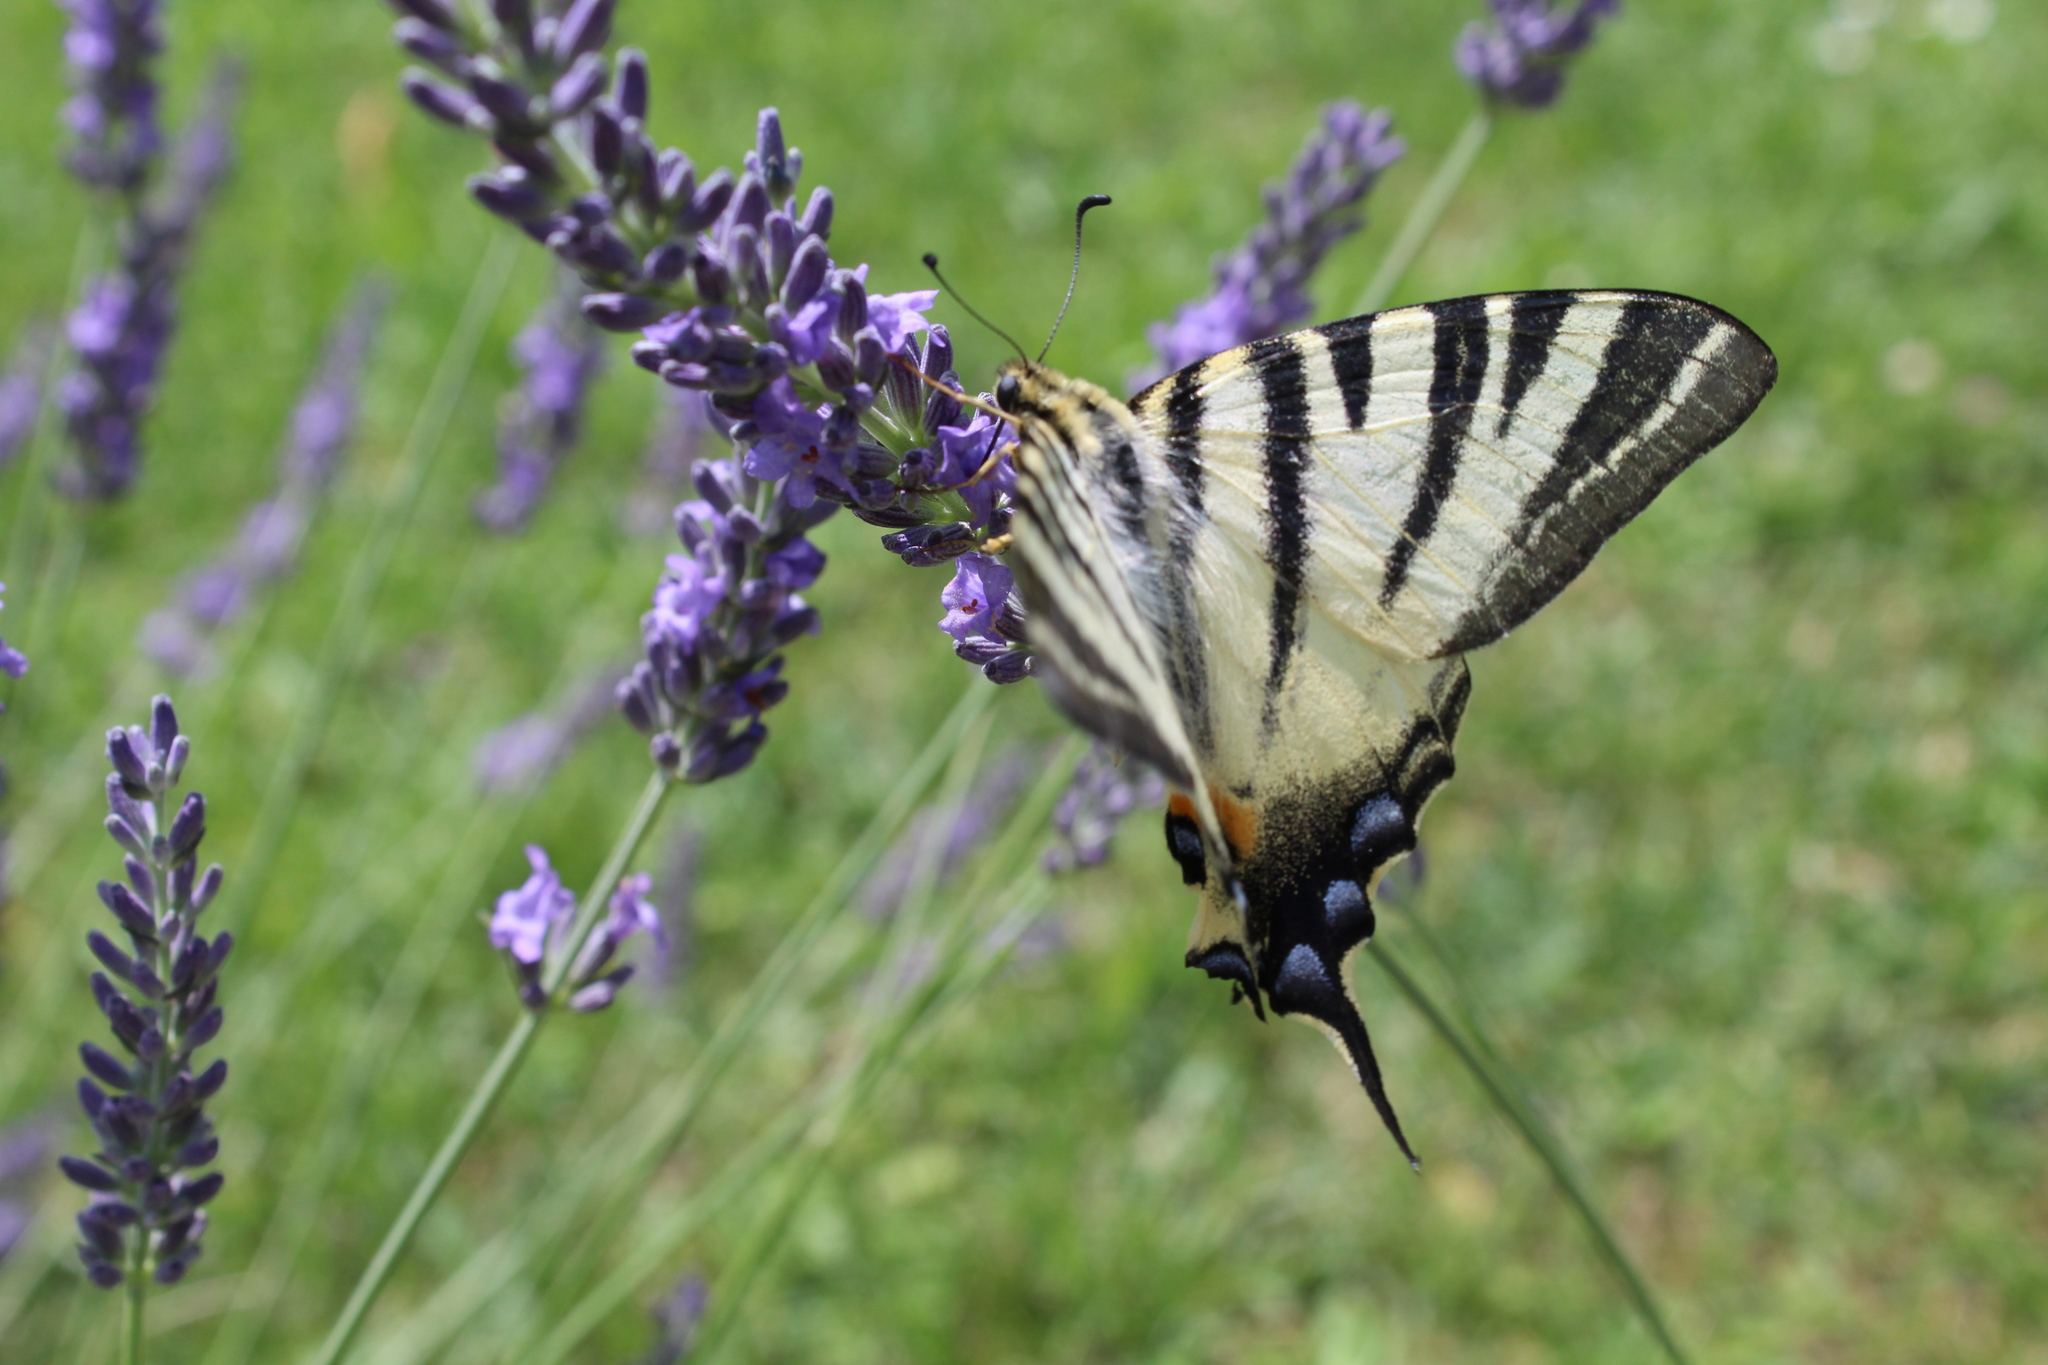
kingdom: Animalia
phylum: Arthropoda
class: Insecta
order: Lepidoptera
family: Papilionidae
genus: Iphiclides
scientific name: Iphiclides podalirius
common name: Scarce swallowtail
